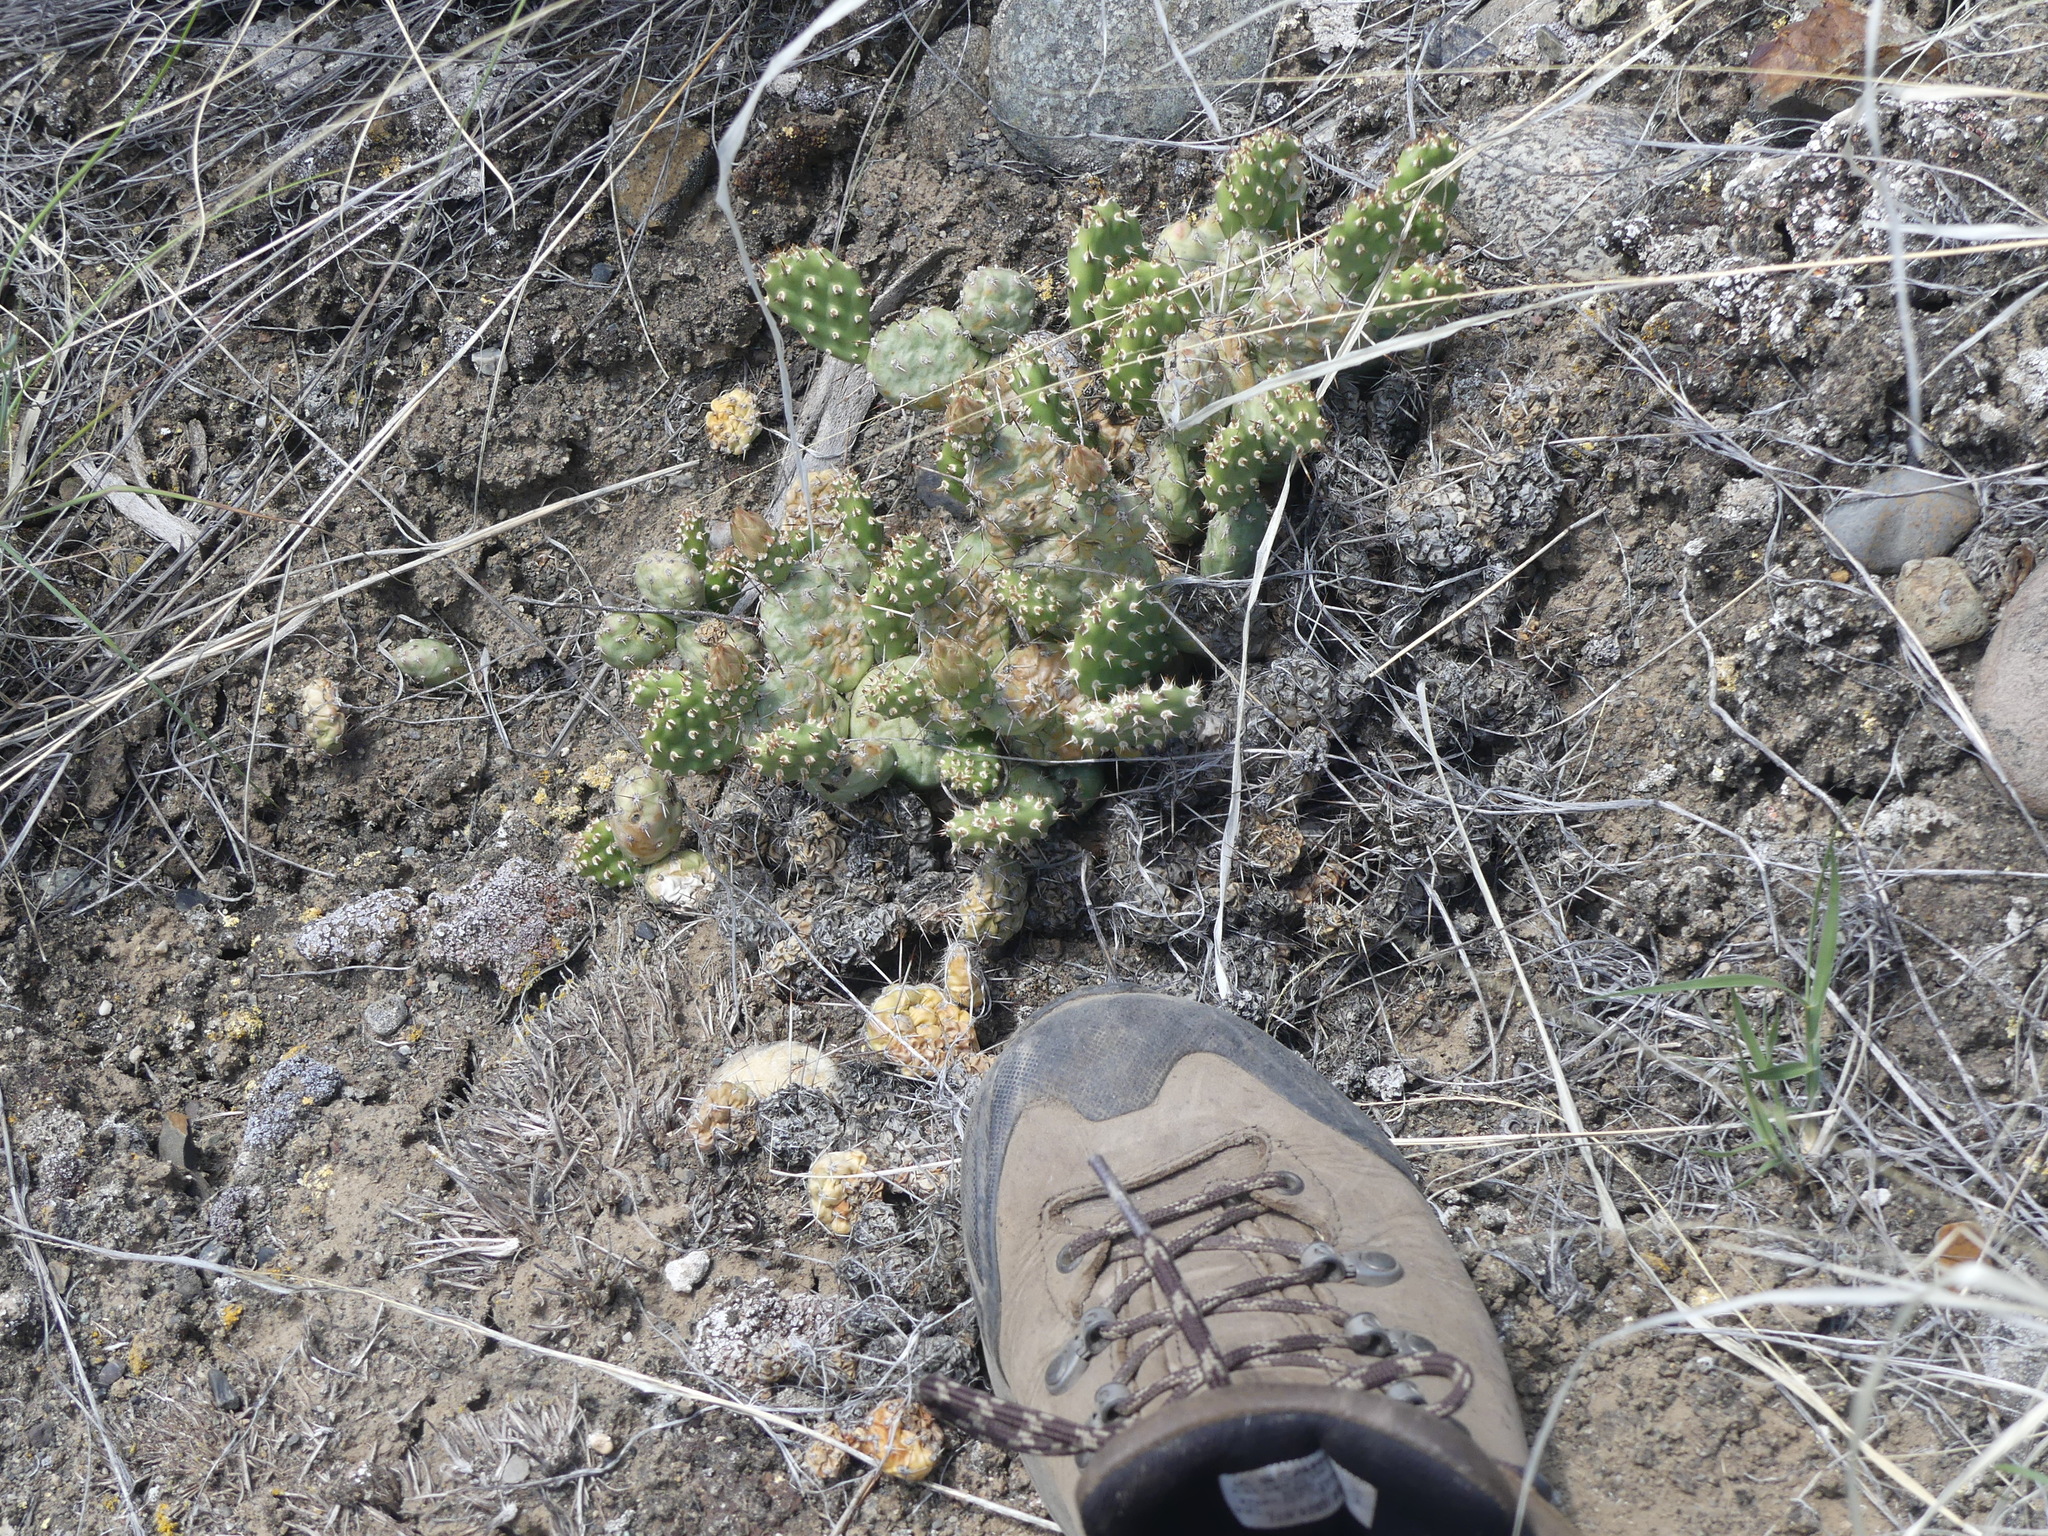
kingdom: Plantae
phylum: Tracheophyta
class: Magnoliopsida
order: Caryophyllales
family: Cactaceae
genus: Opuntia
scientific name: Opuntia fragilis
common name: Brittle cactus
